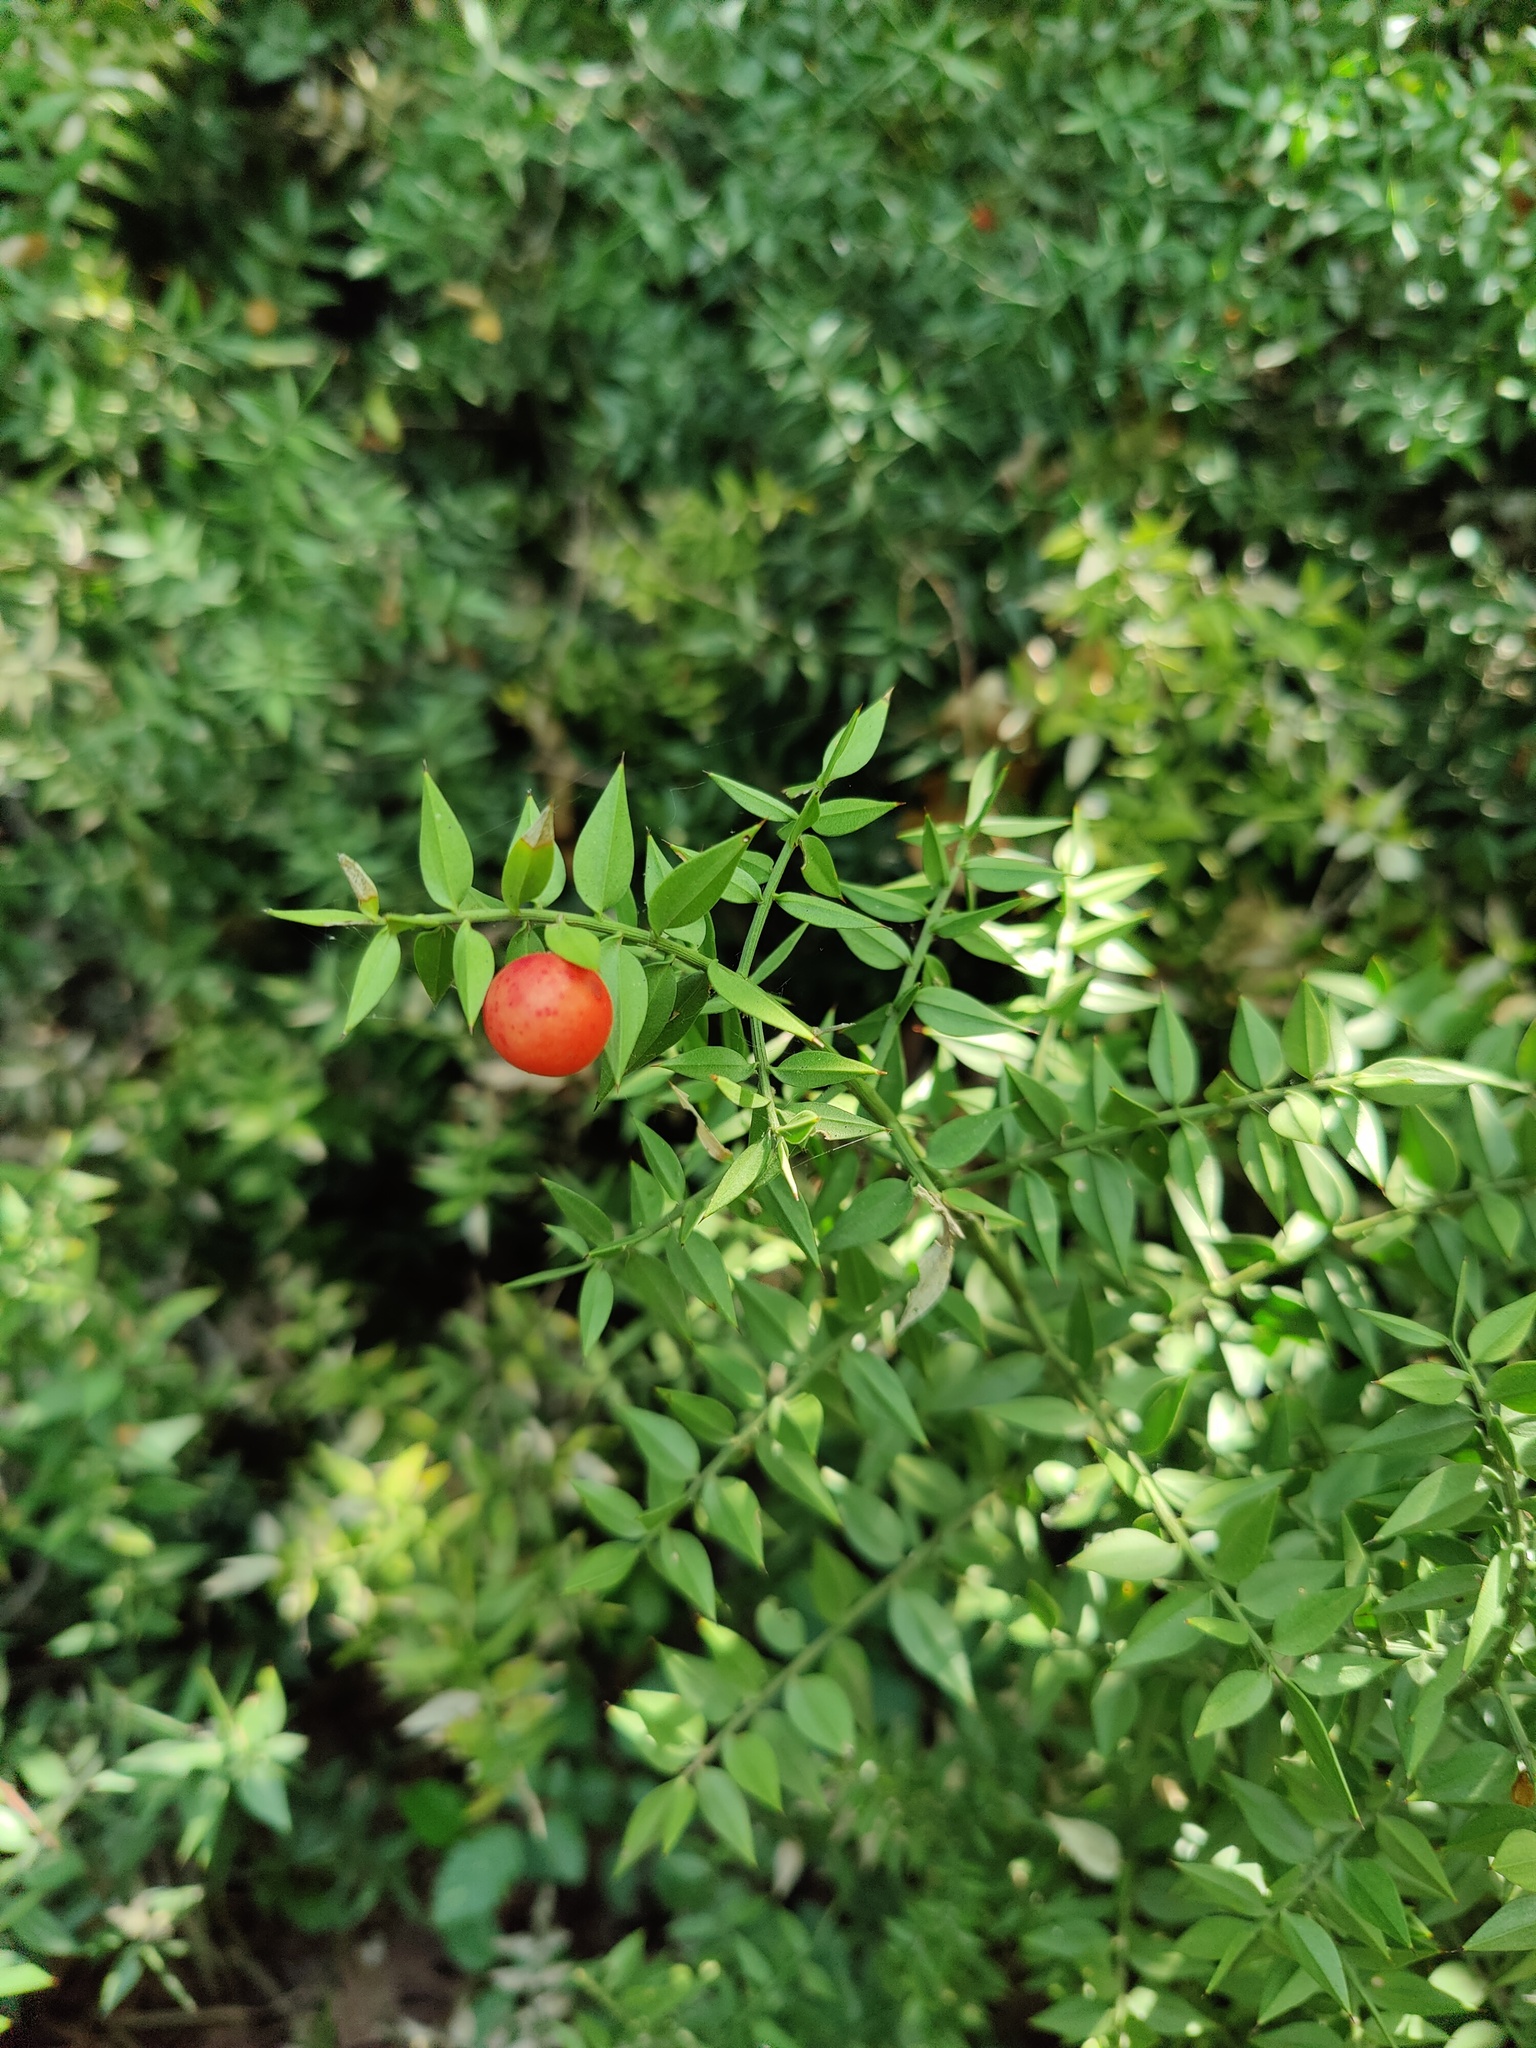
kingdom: Plantae
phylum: Tracheophyta
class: Liliopsida
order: Asparagales
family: Asparagaceae
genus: Ruscus
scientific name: Ruscus aculeatus
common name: Butcher's-broom
